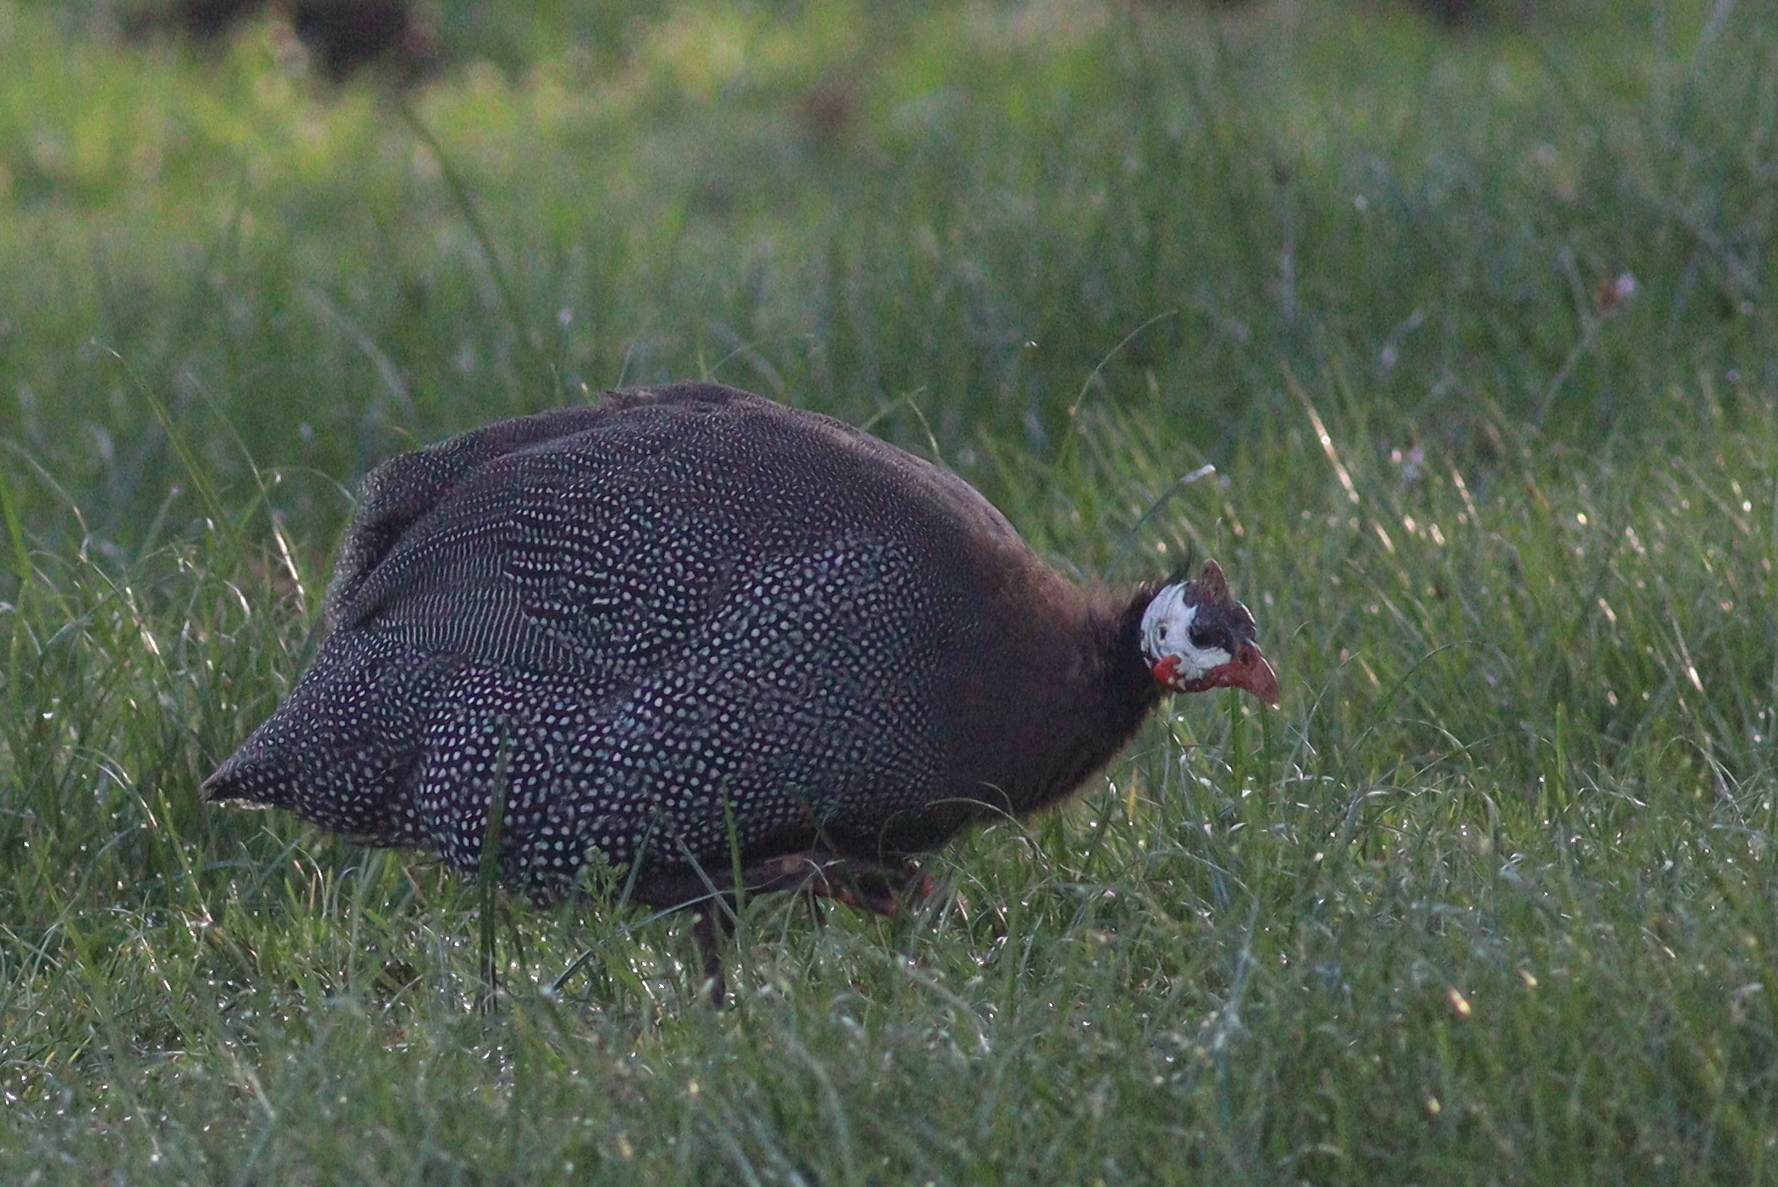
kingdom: Animalia
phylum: Chordata
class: Aves
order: Galliformes
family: Numididae
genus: Numida
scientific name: Numida meleagris
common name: Helmeted guineafowl
